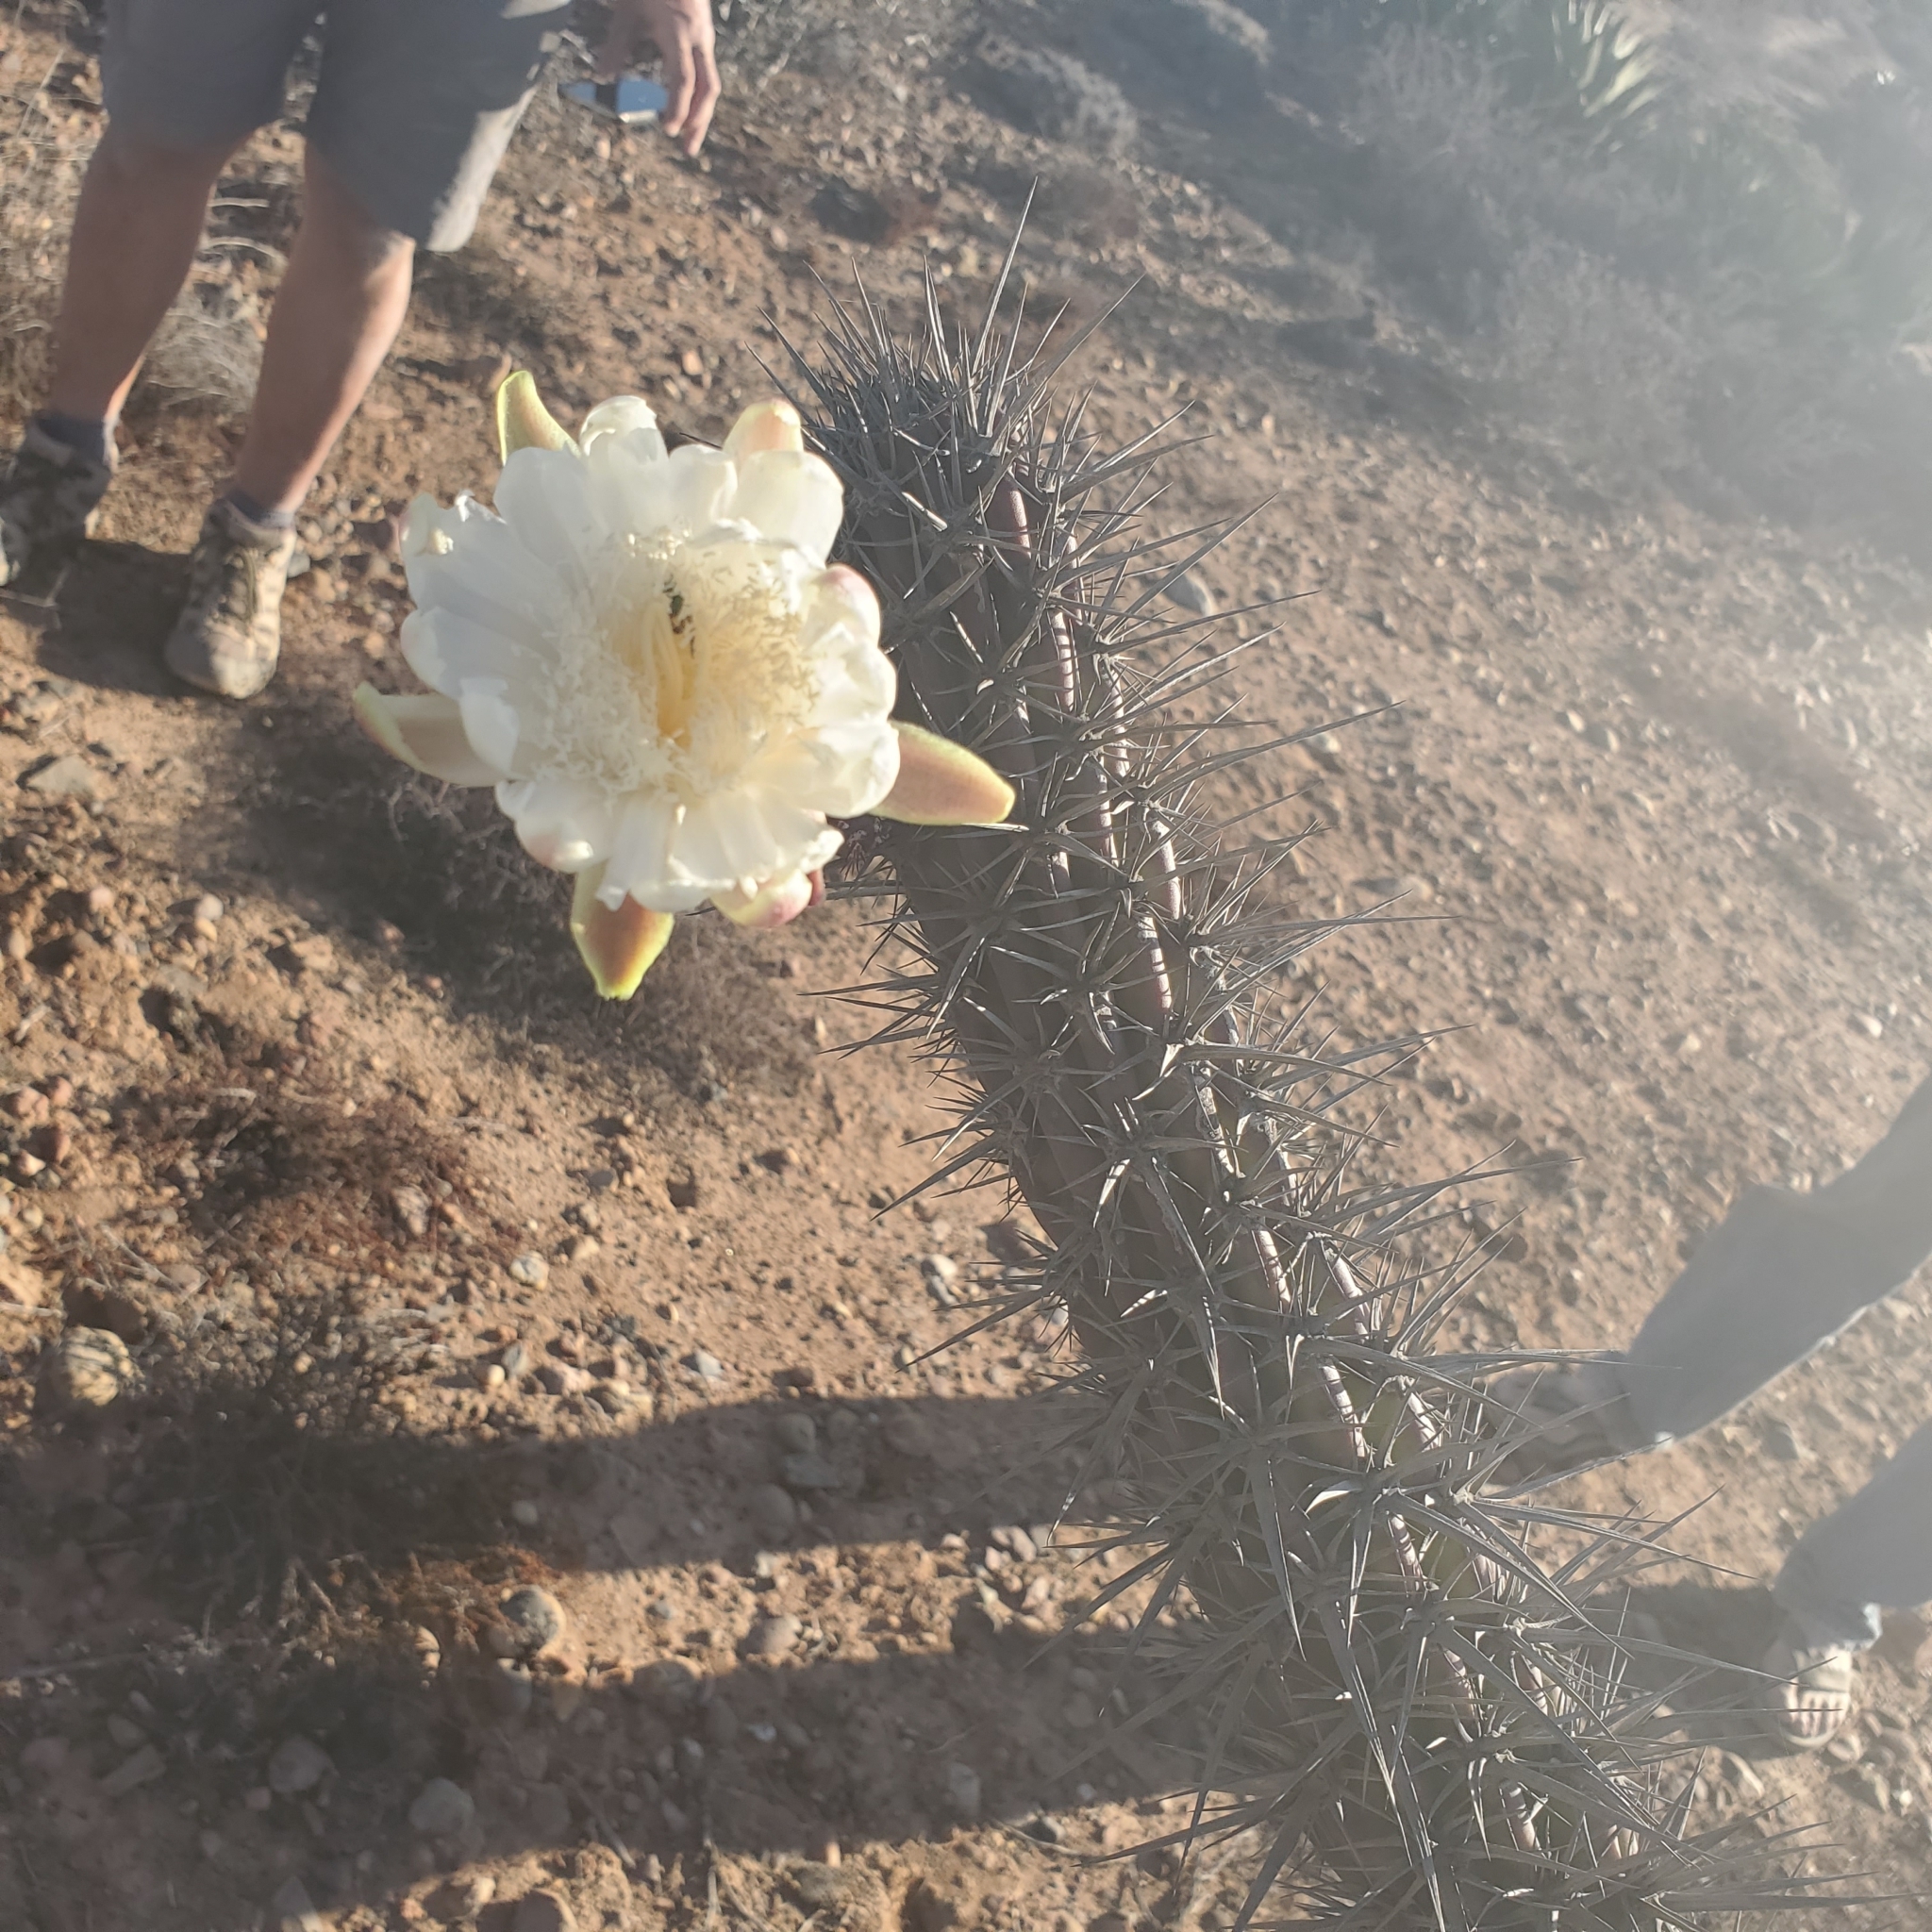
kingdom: Plantae
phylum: Tracheophyta
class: Magnoliopsida
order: Caryophyllales
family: Cactaceae
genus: Stenocereus
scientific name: Stenocereus gummosus
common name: Dagger cactus
